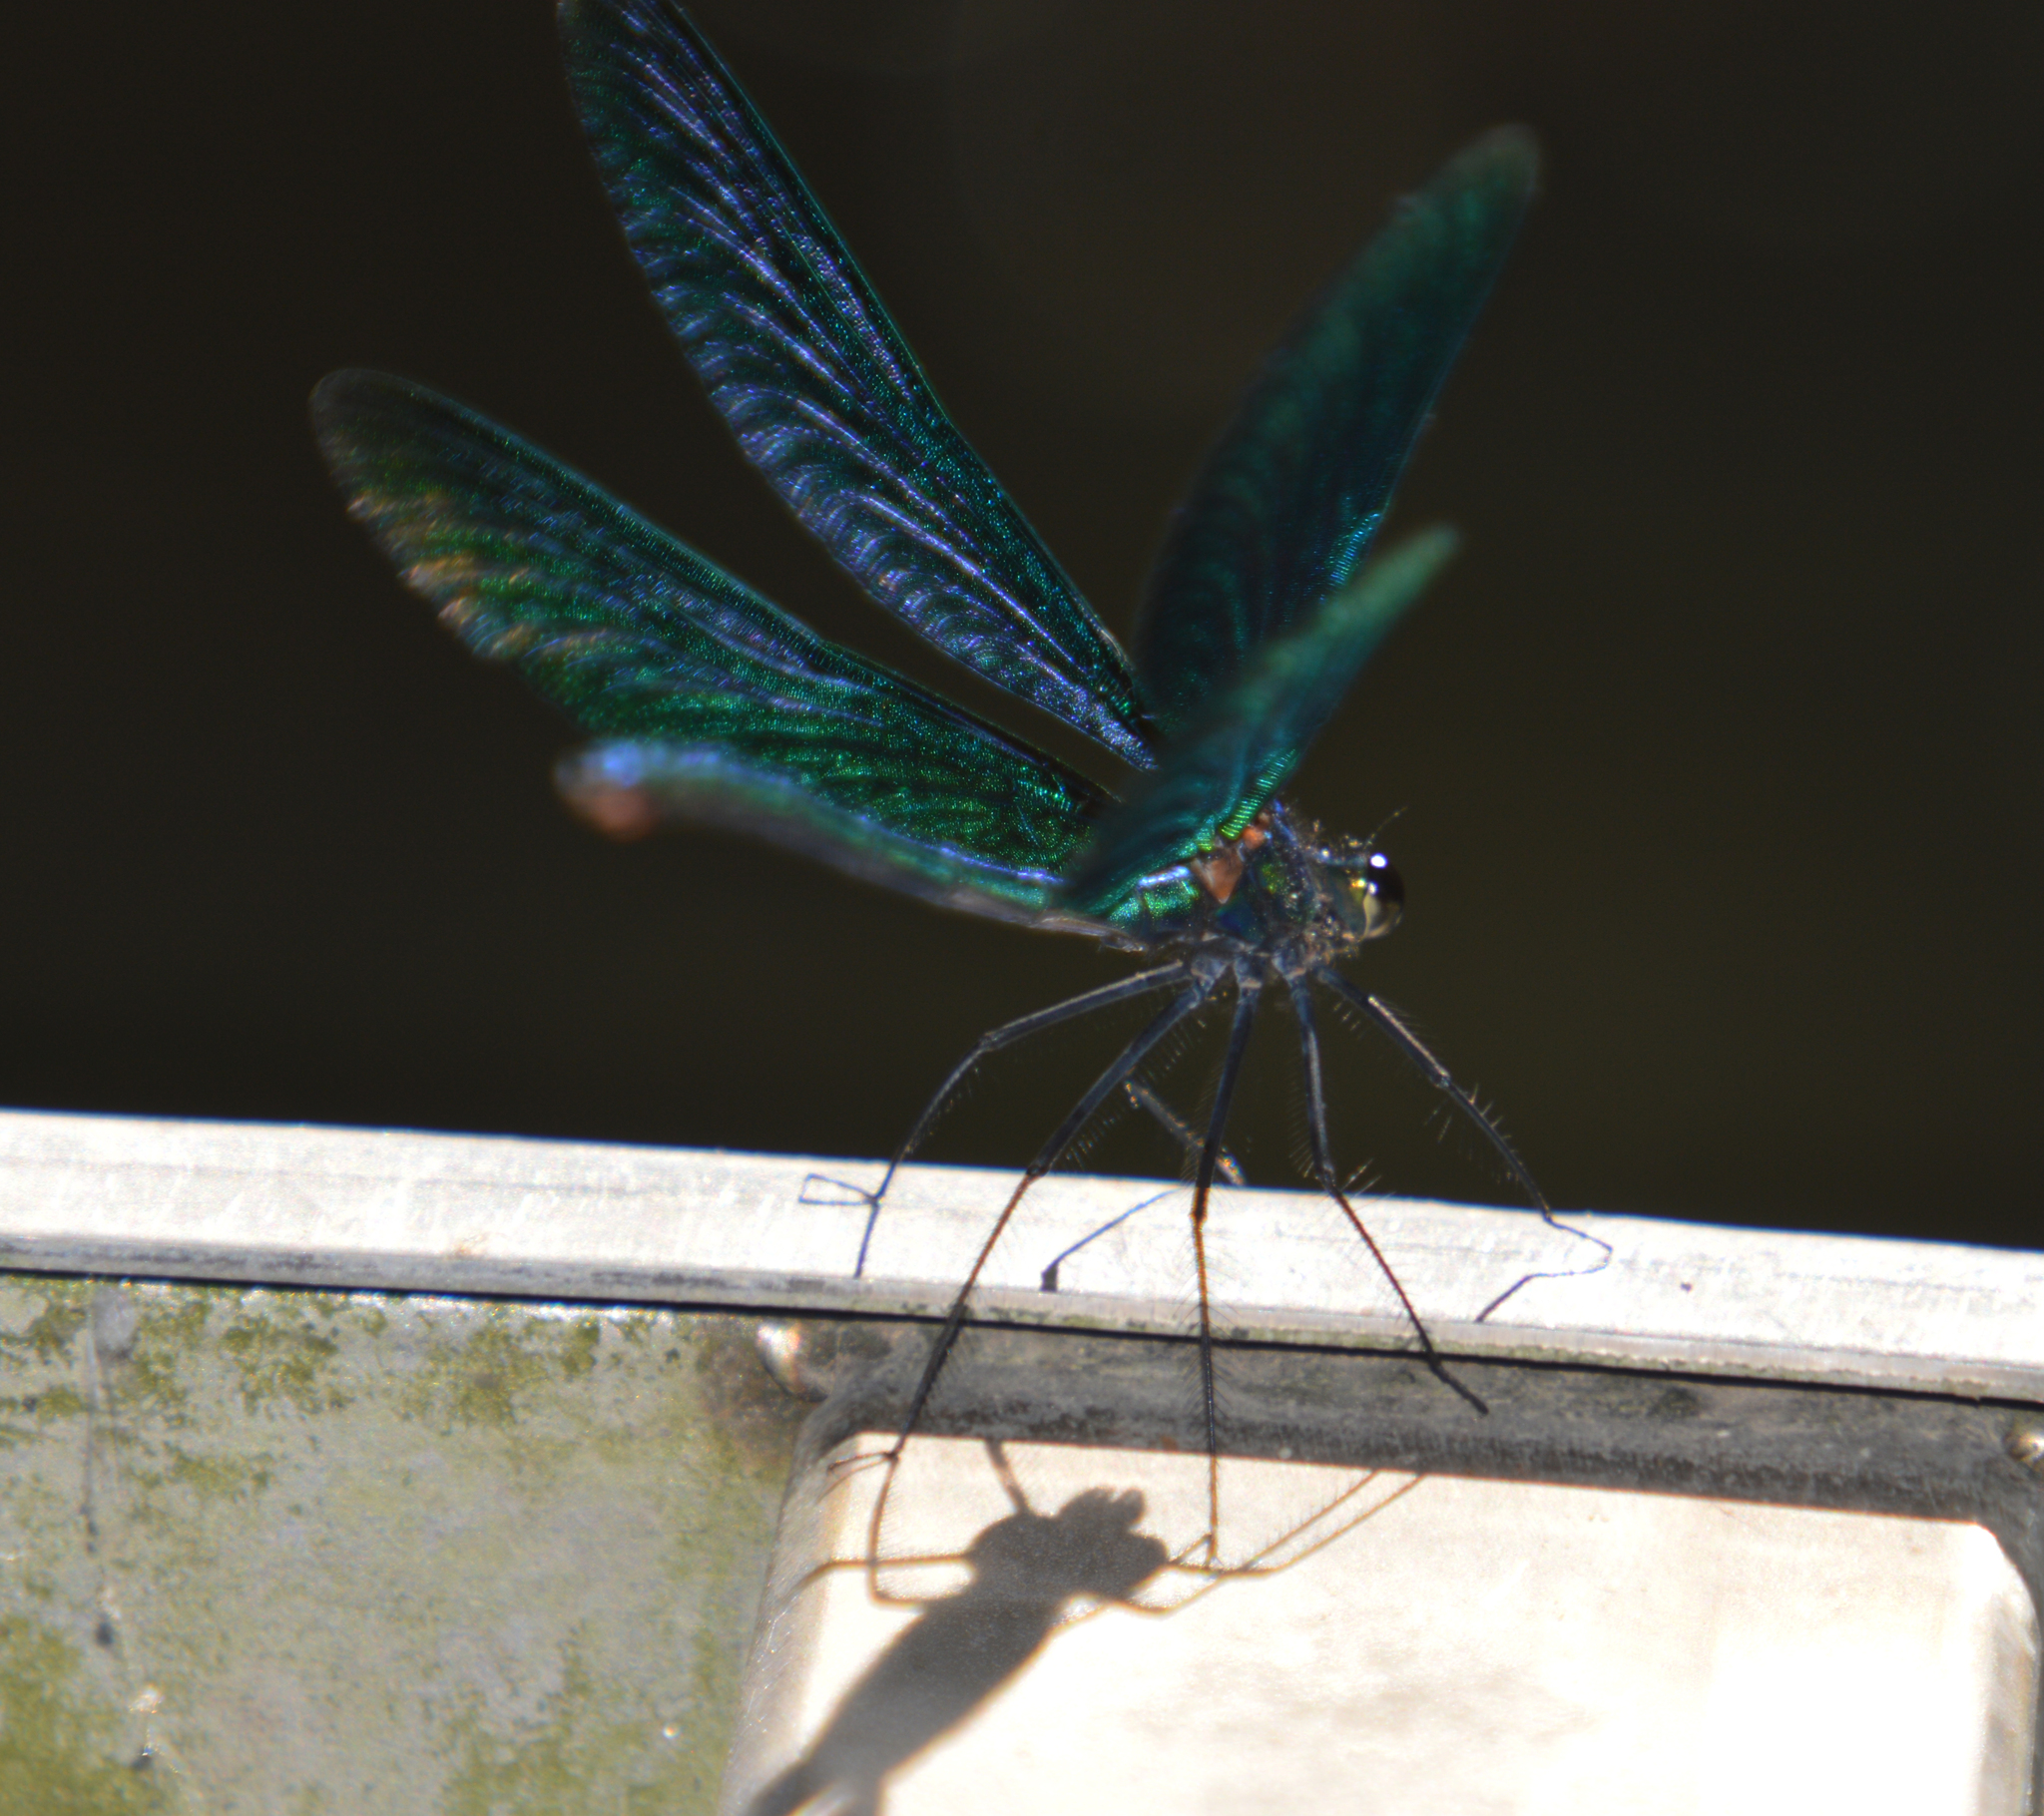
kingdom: Animalia
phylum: Arthropoda
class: Insecta
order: Odonata
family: Calopterygidae
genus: Calopteryx
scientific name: Calopteryx virgo
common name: Beautiful demoiselle
